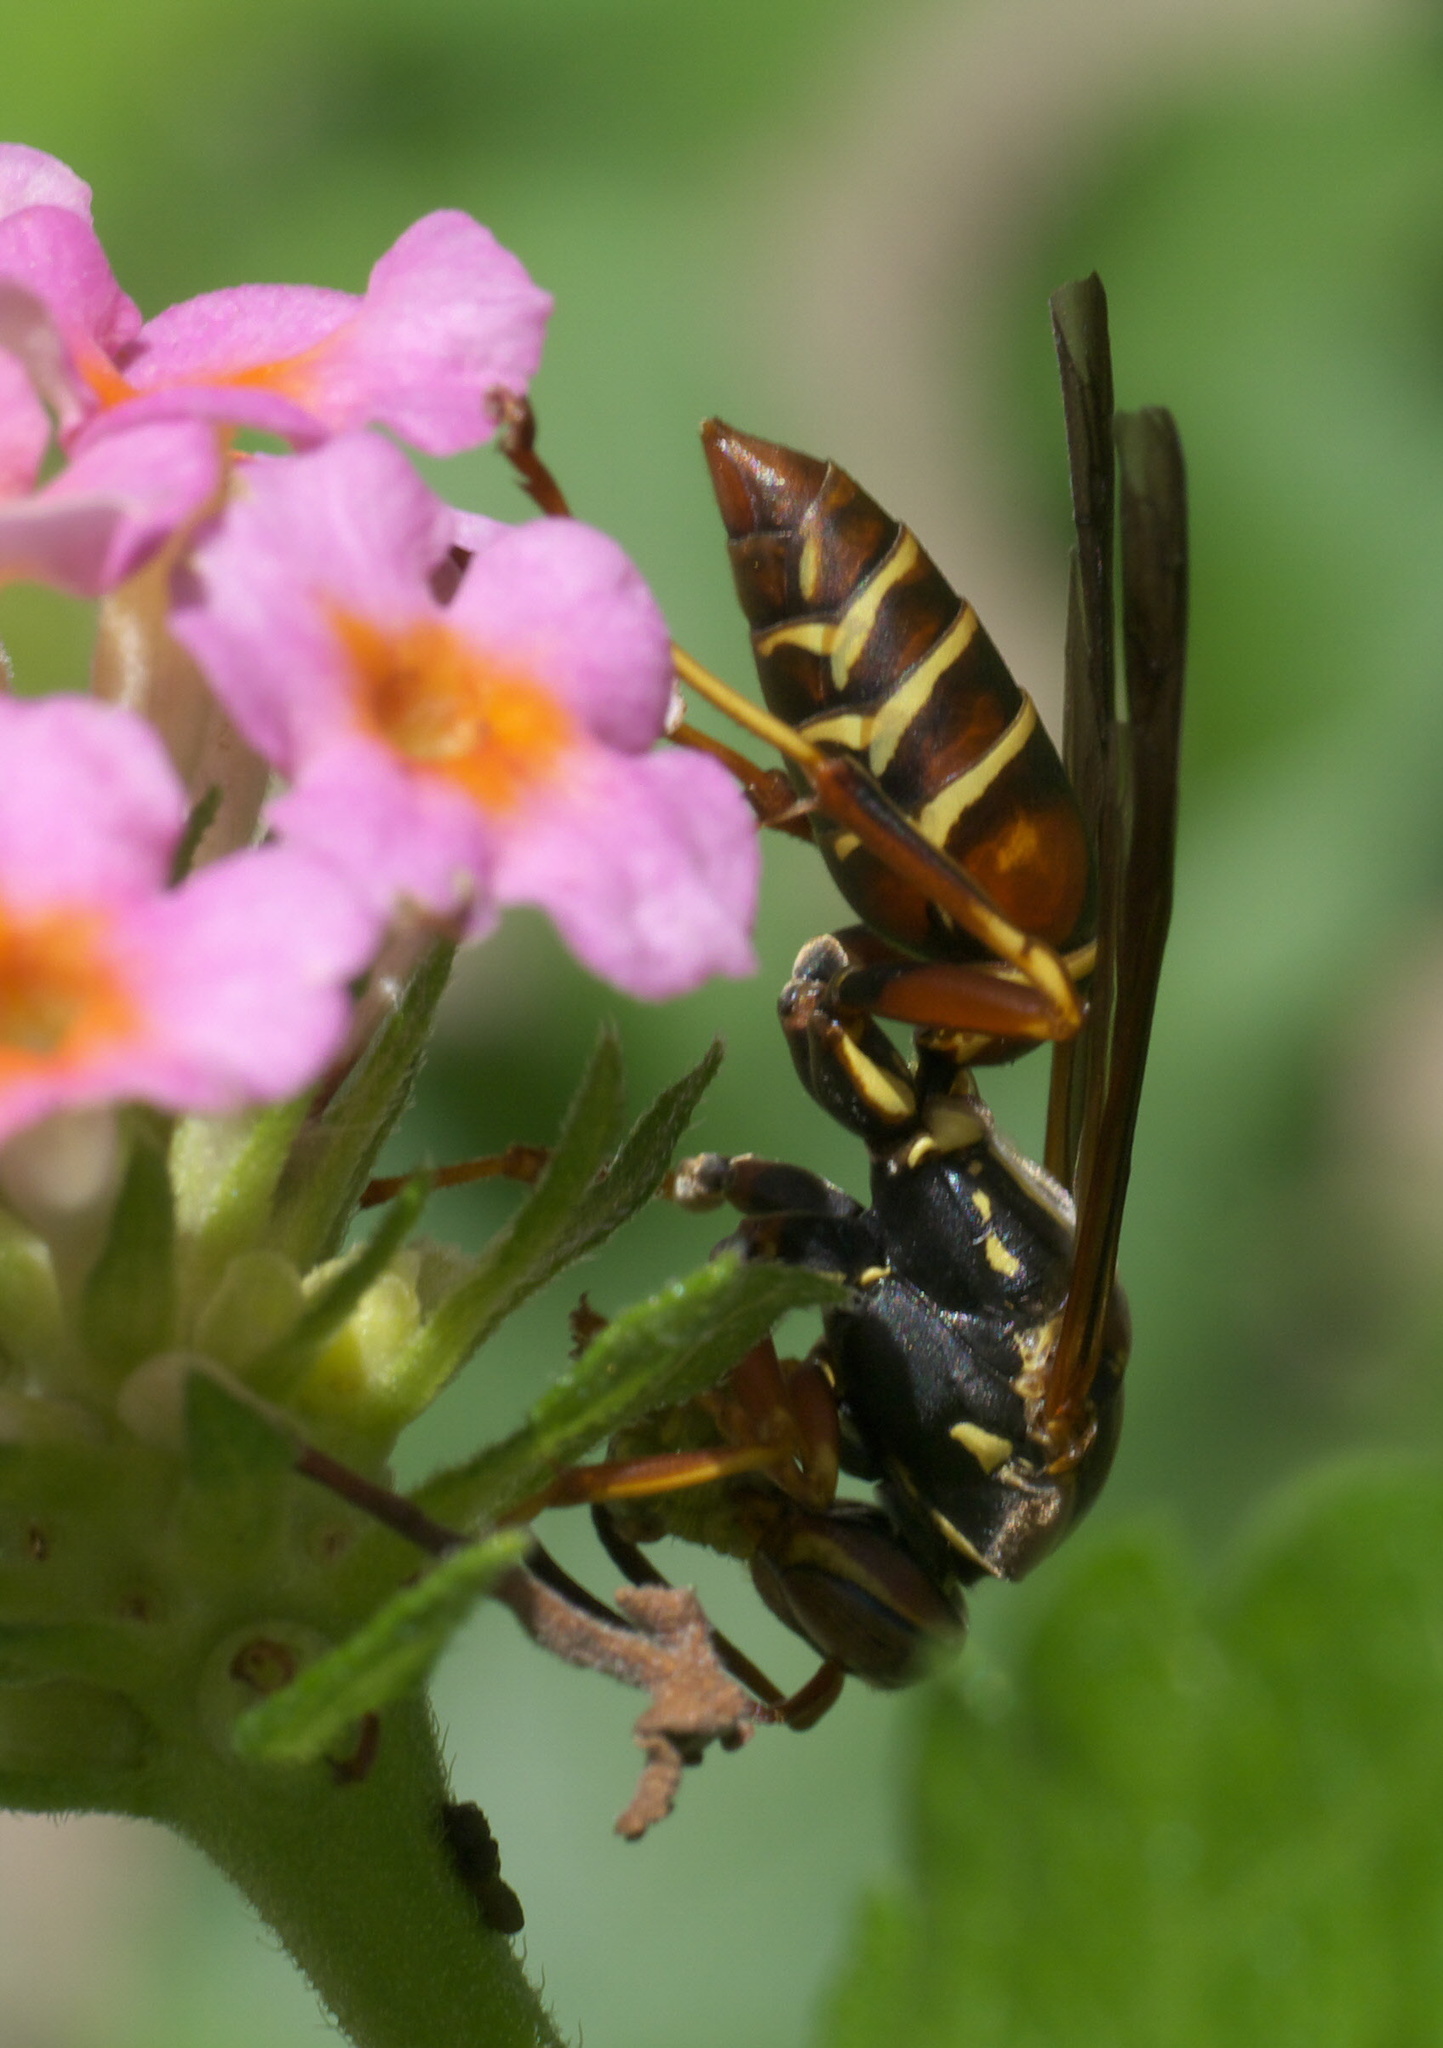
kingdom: Animalia
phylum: Arthropoda
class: Insecta
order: Hymenoptera
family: Eumenidae
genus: Polistes
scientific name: Polistes fuscatus
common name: Dark paper wasp
